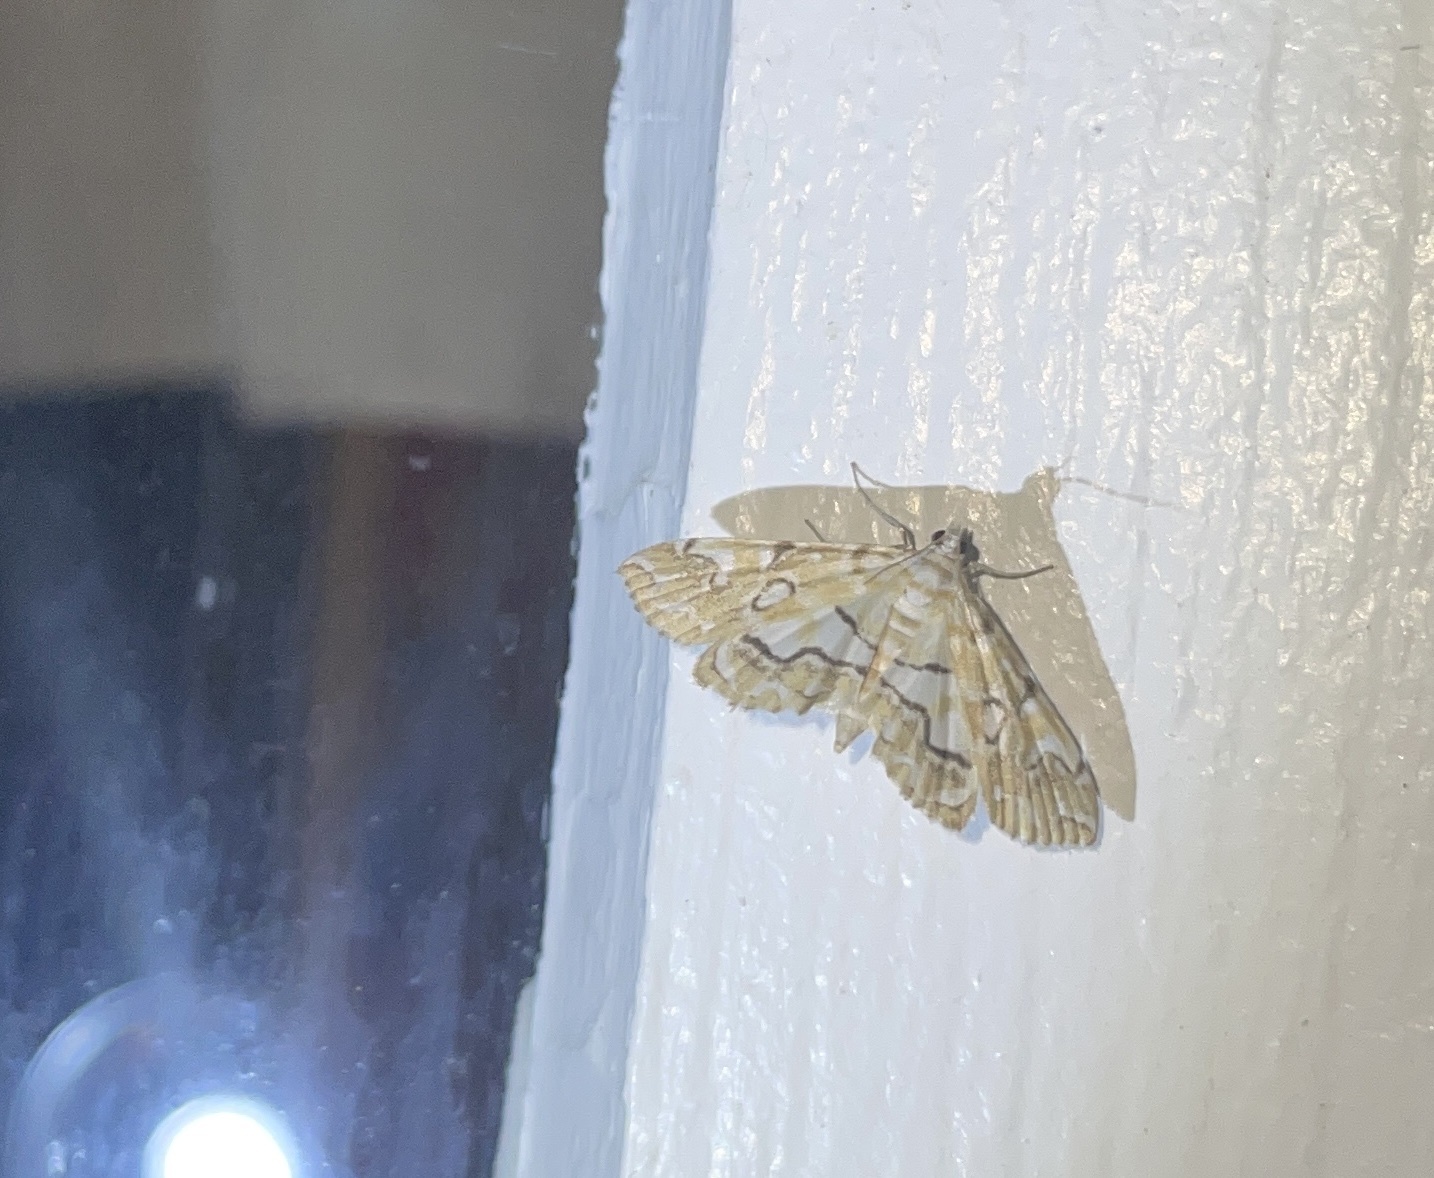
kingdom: Animalia
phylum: Arthropoda
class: Insecta
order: Lepidoptera
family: Crambidae
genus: Elophila
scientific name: Elophila icciusalis
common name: Pondside pyralid moth
